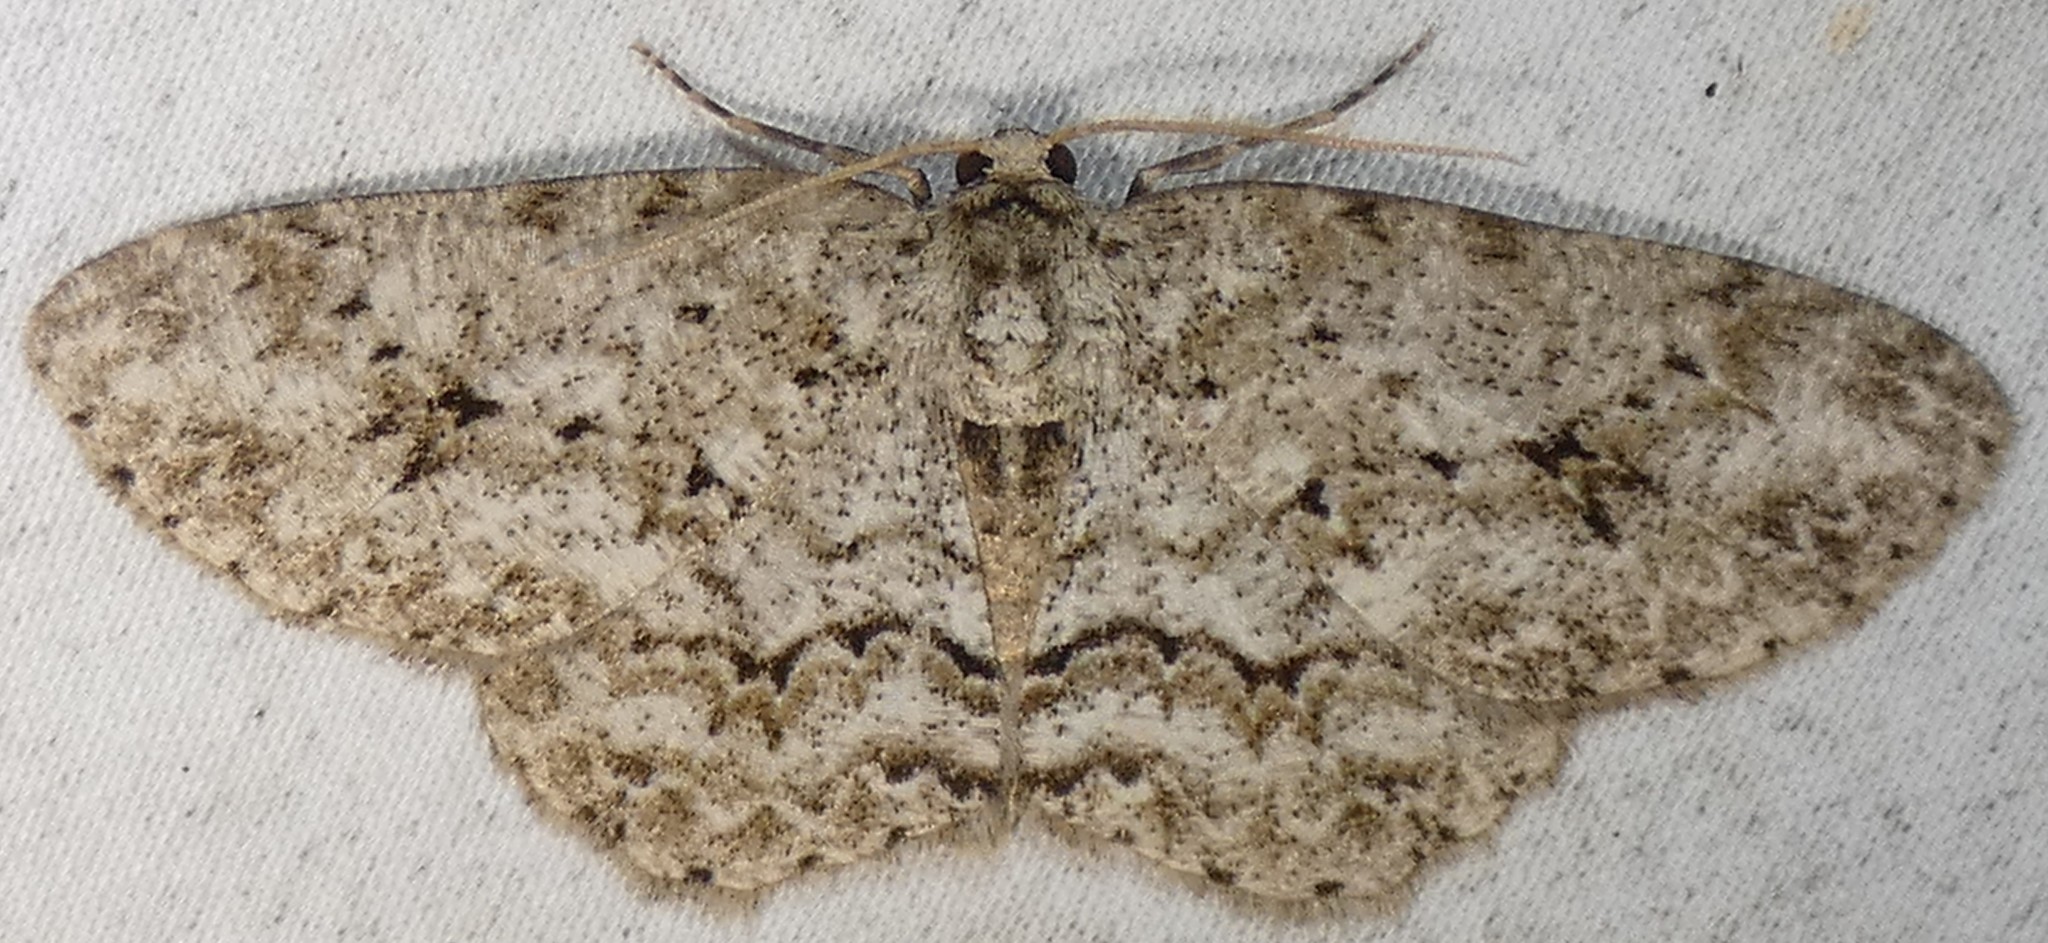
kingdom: Animalia
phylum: Arthropoda
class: Insecta
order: Lepidoptera
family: Geometridae
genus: Ectropis
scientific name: Ectropis crepuscularia
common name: Engrailed
